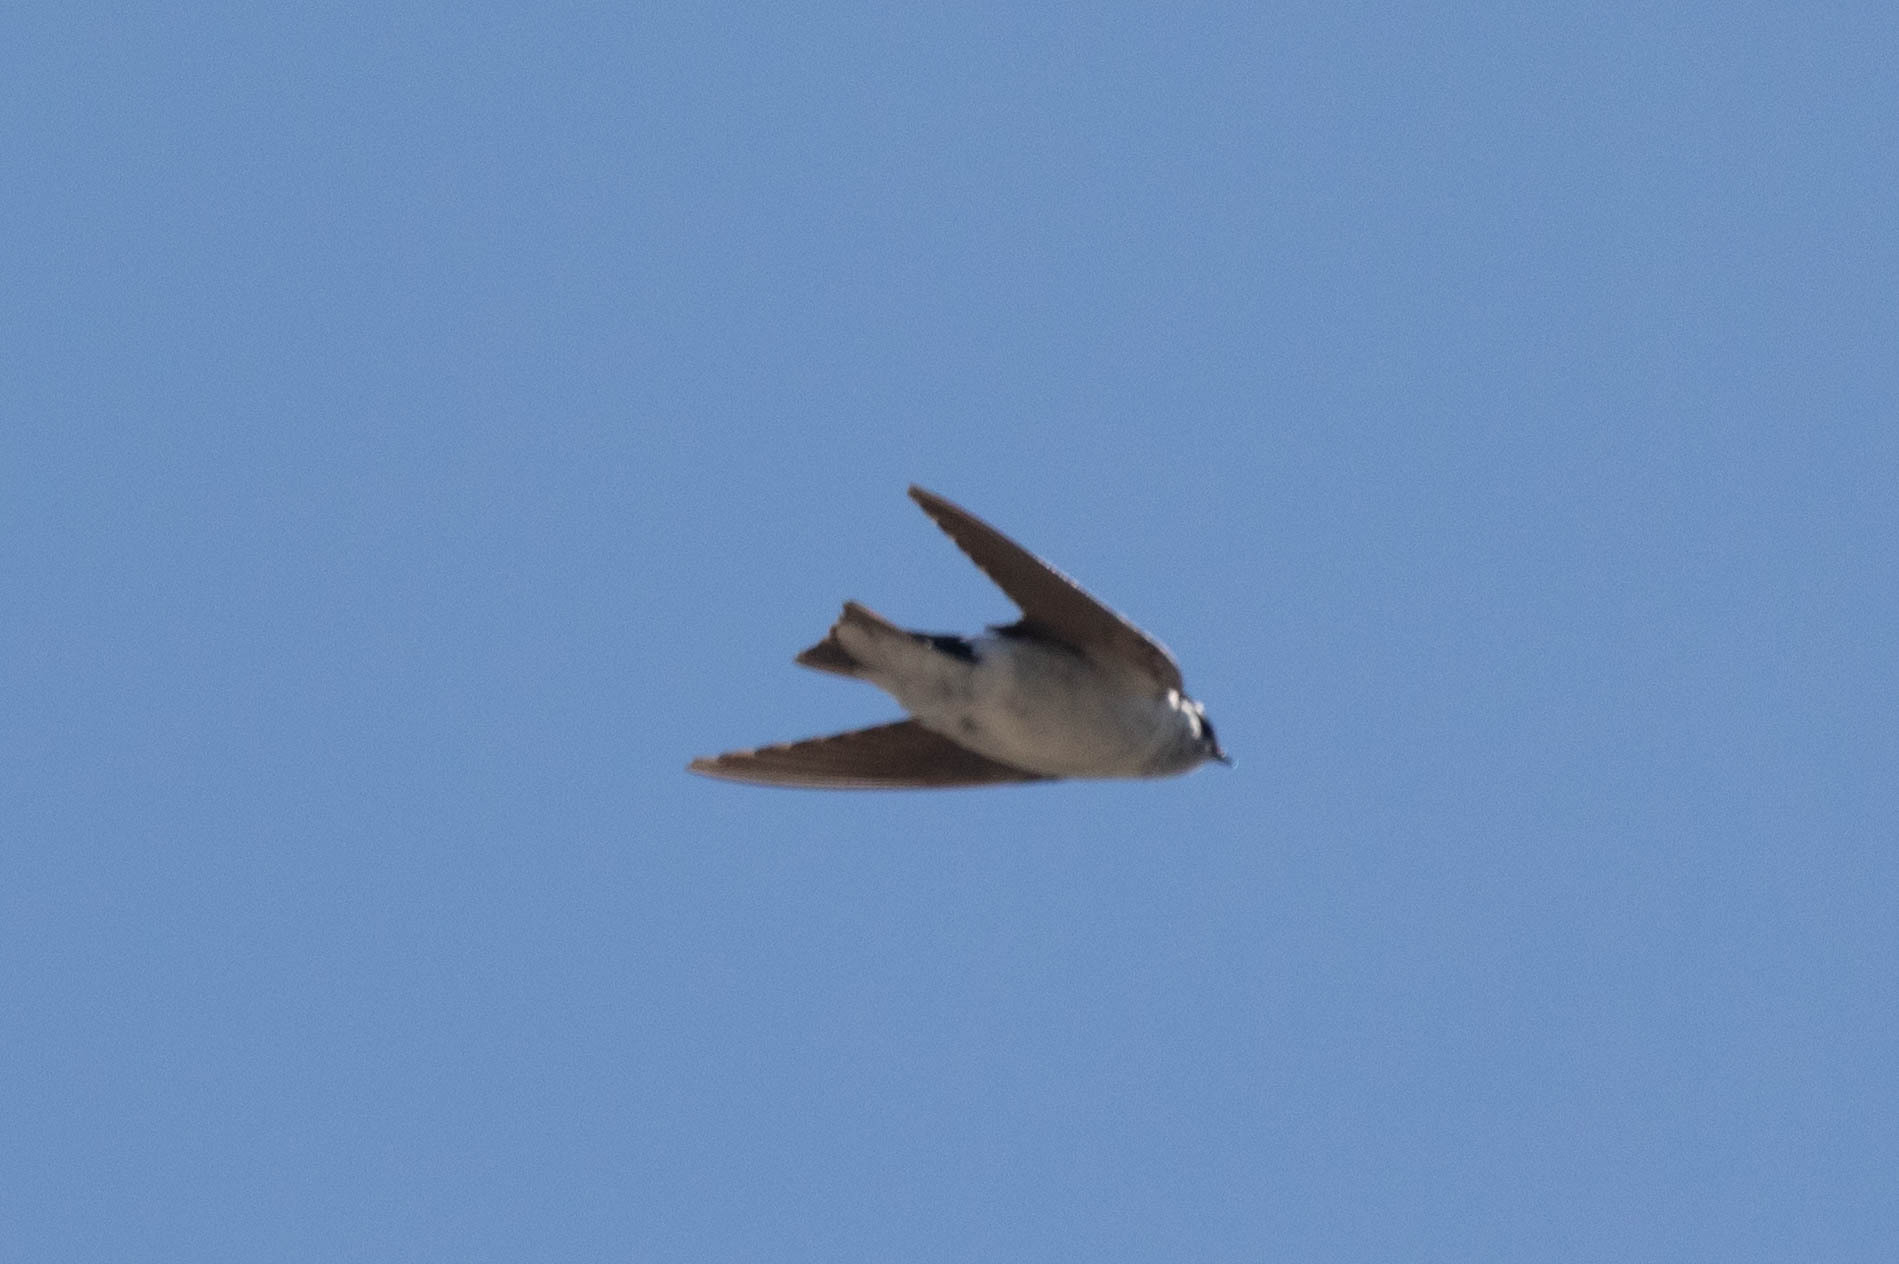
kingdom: Animalia
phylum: Chordata
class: Aves
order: Passeriformes
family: Hirundinidae
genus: Tachycineta
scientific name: Tachycineta thalassina
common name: Violet-green swallow
